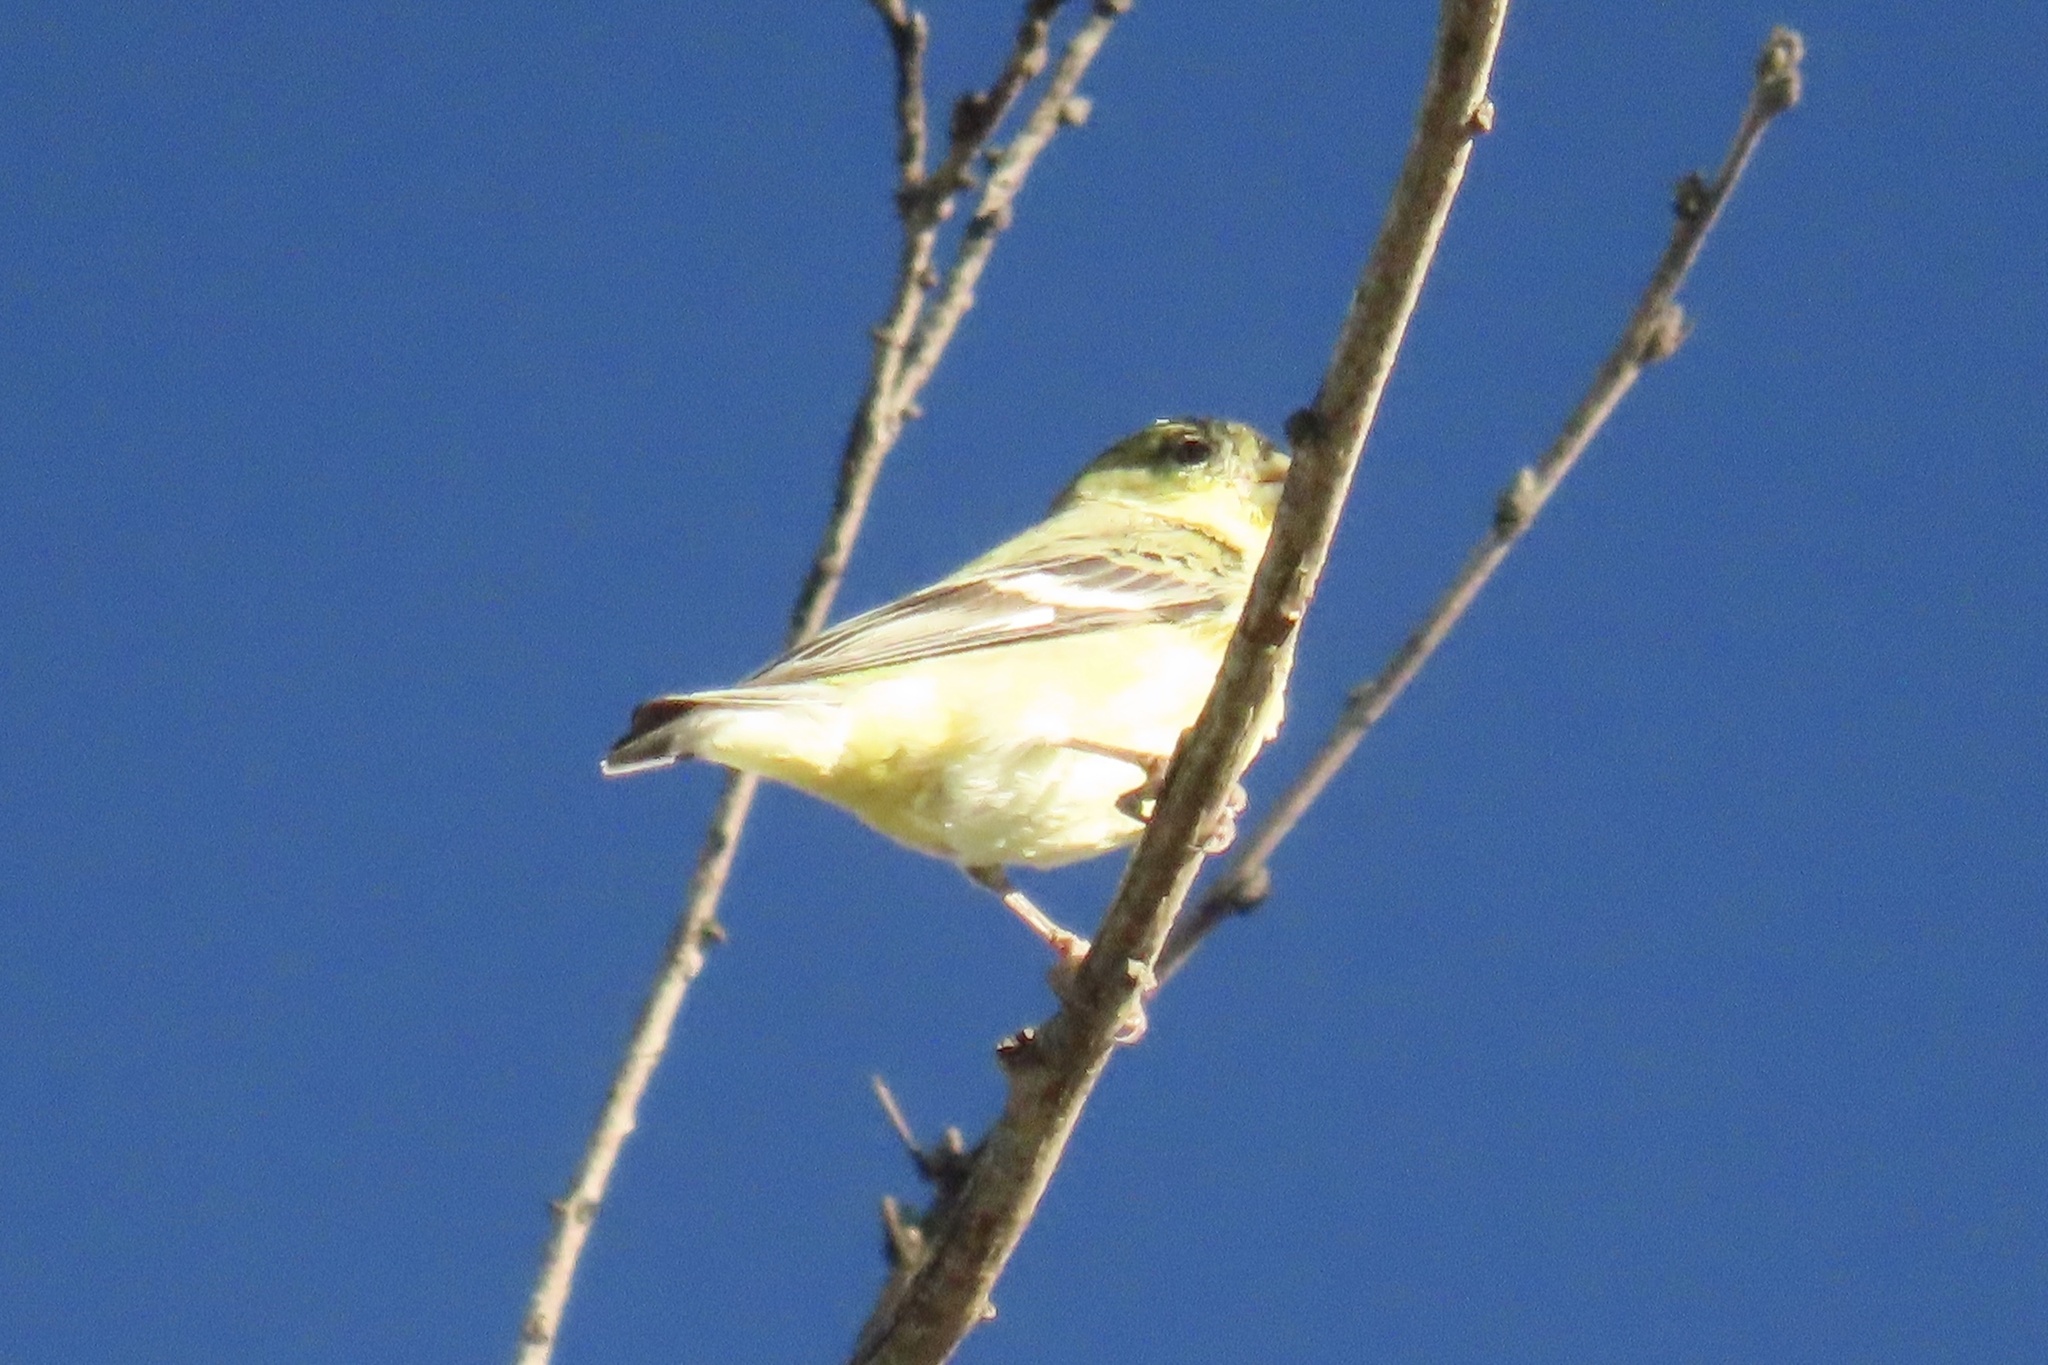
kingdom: Animalia
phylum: Chordata
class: Aves
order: Passeriformes
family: Fringillidae
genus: Spinus
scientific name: Spinus psaltria
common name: Lesser goldfinch
